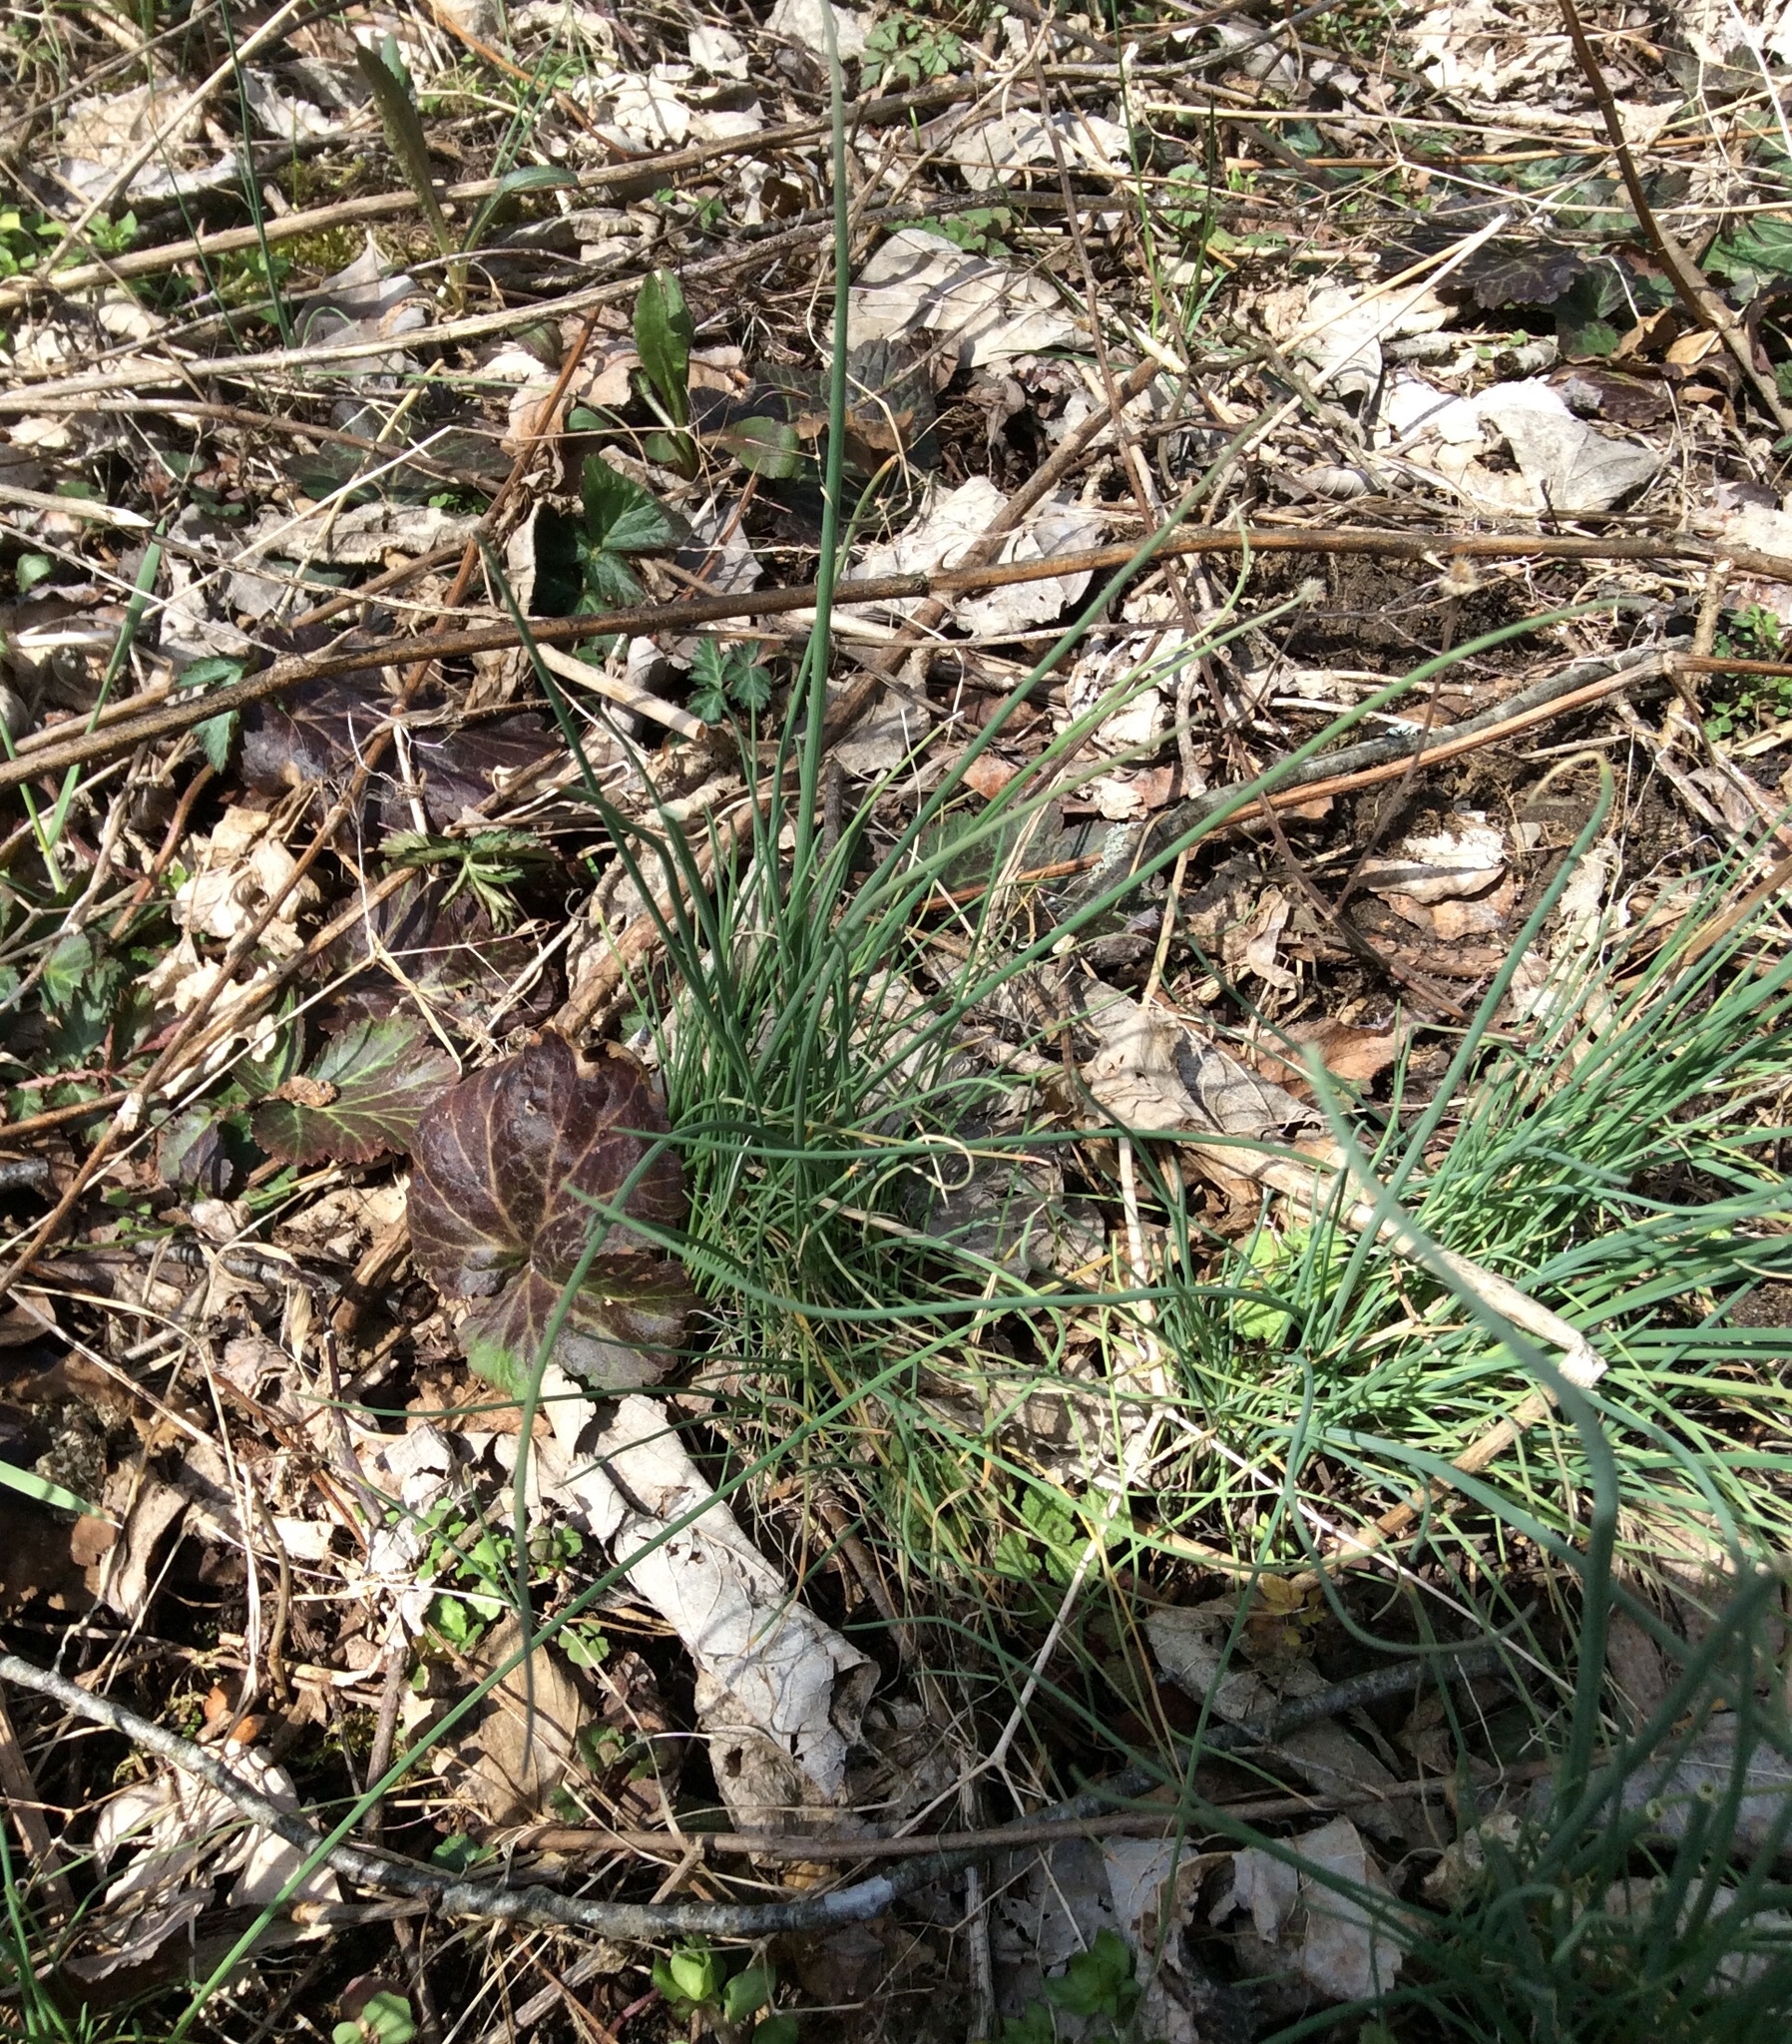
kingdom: Plantae
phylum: Tracheophyta
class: Liliopsida
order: Asparagales
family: Amaryllidaceae
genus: Allium
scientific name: Allium vineale
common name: Crow garlic
